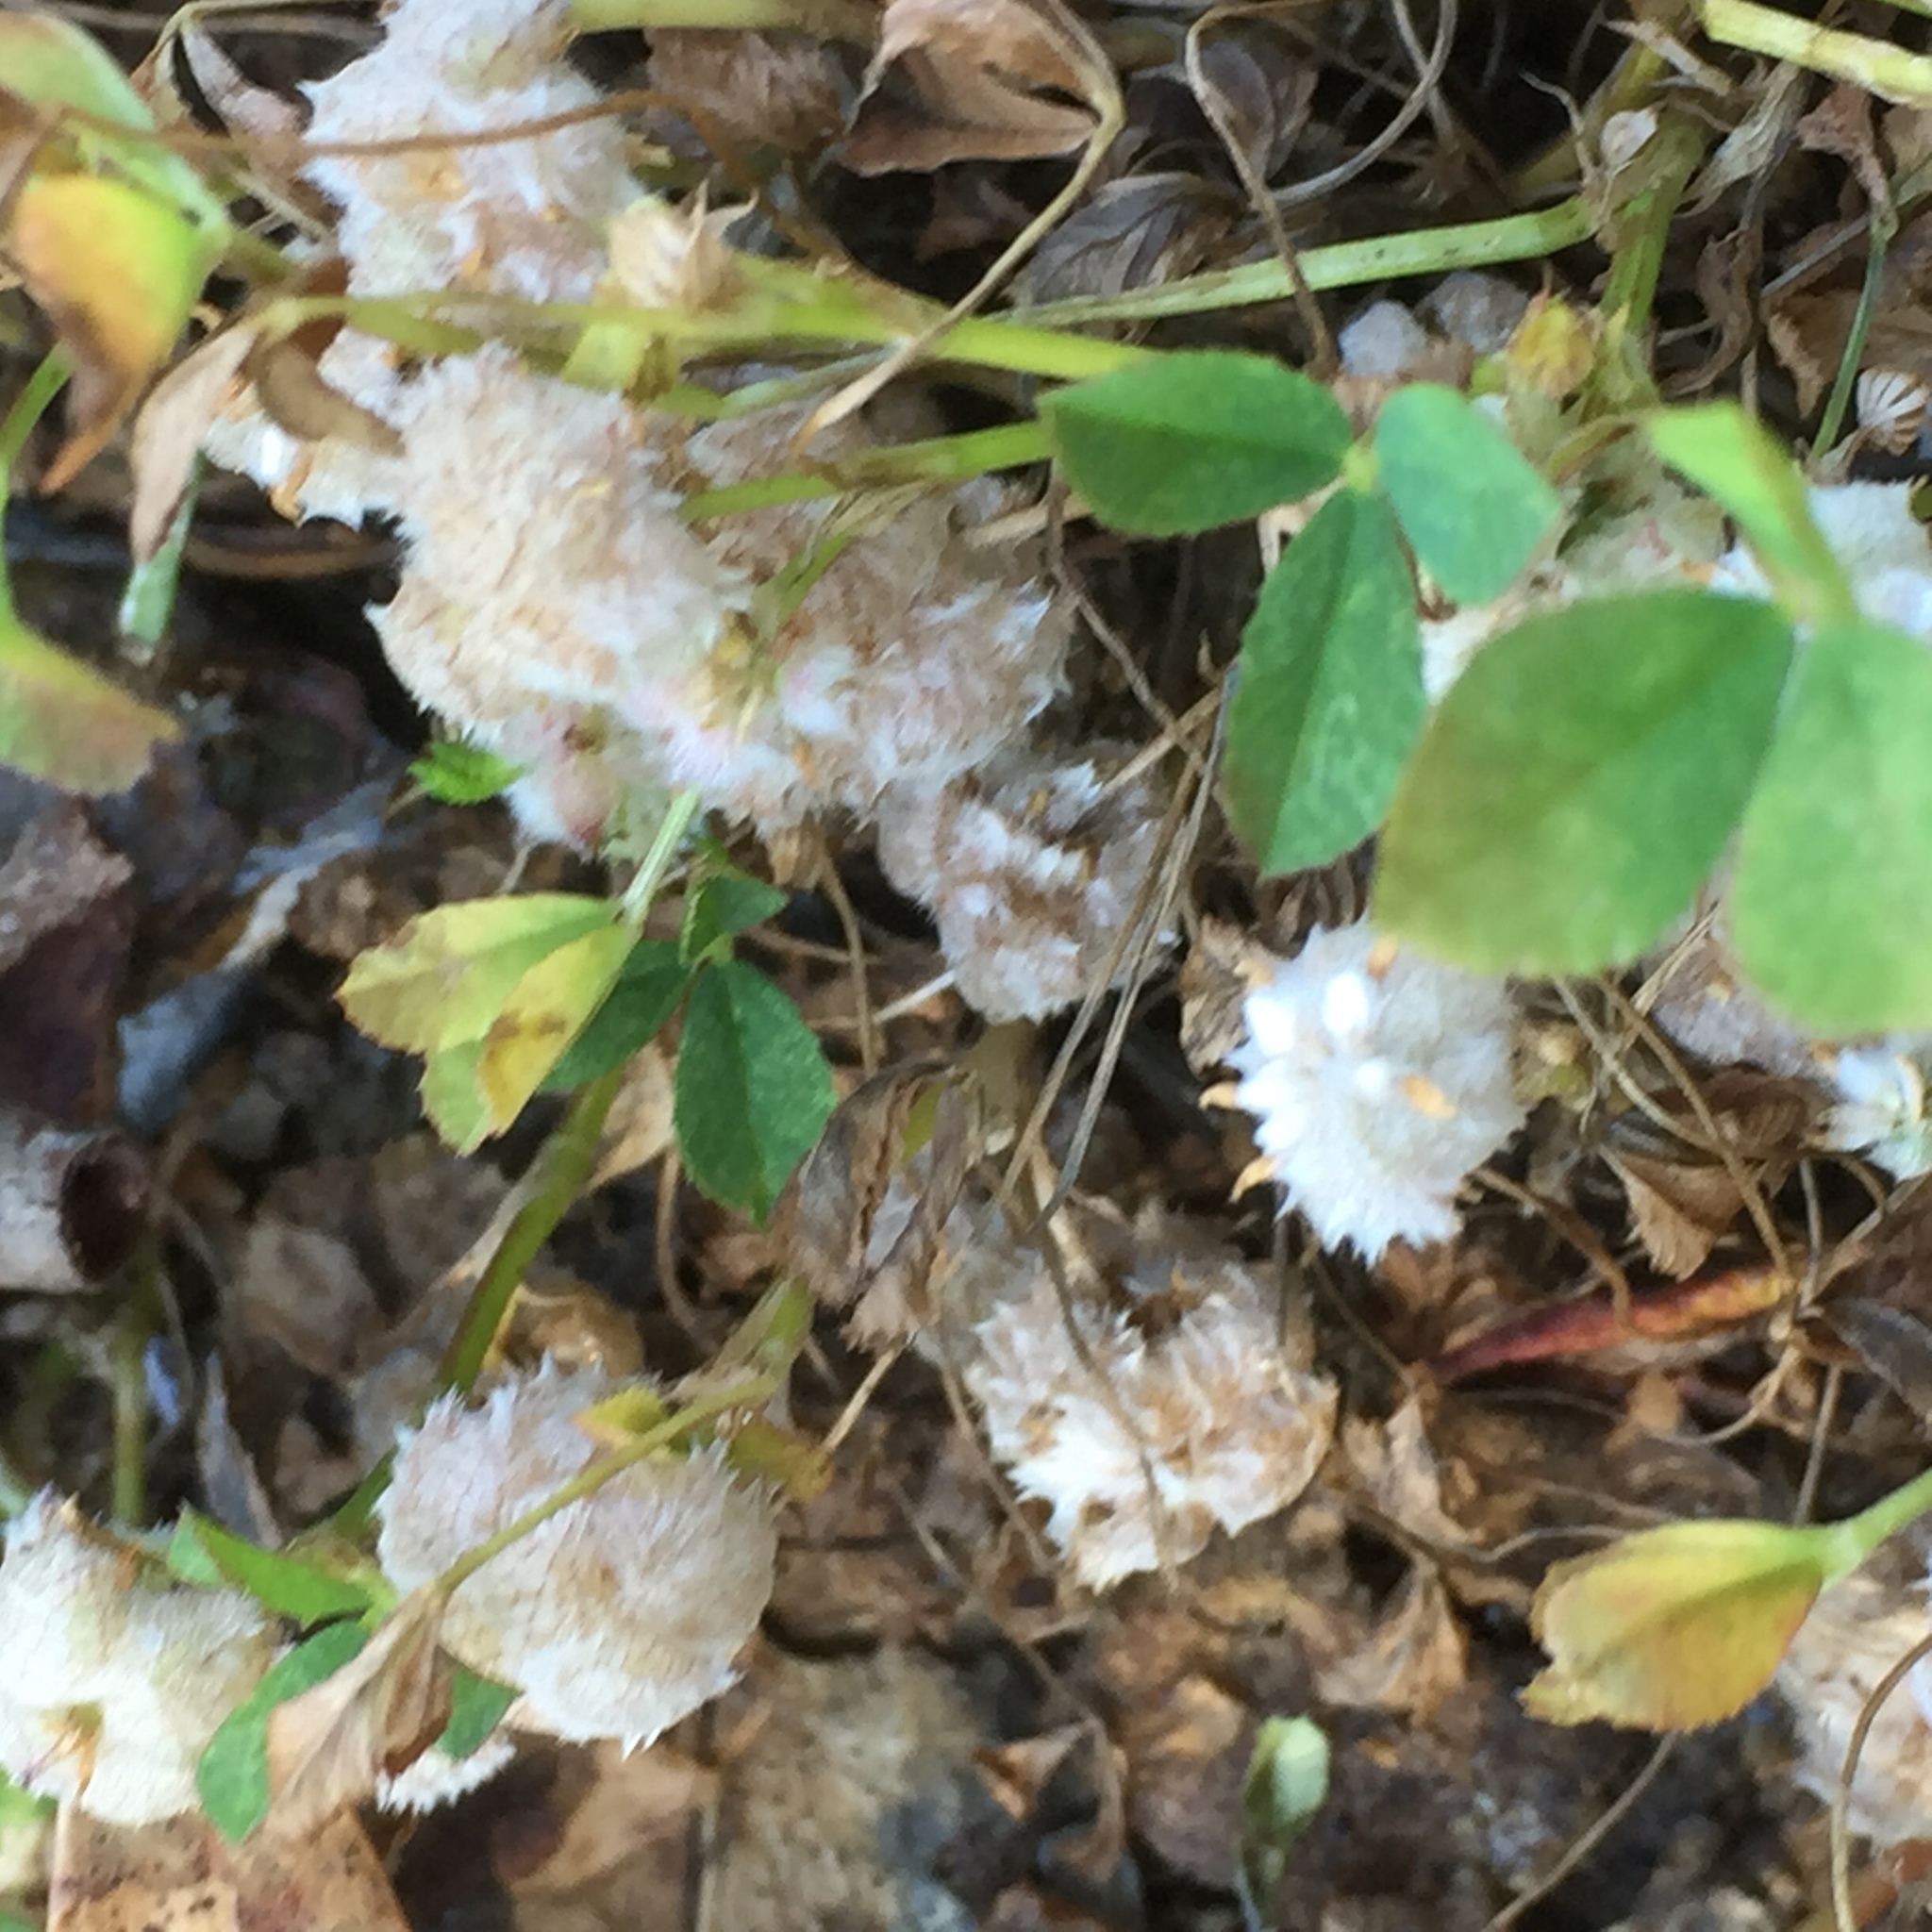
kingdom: Plantae
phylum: Tracheophyta
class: Magnoliopsida
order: Fabales
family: Fabaceae
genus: Trifolium
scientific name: Trifolium tomentosum
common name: Woolly clover
